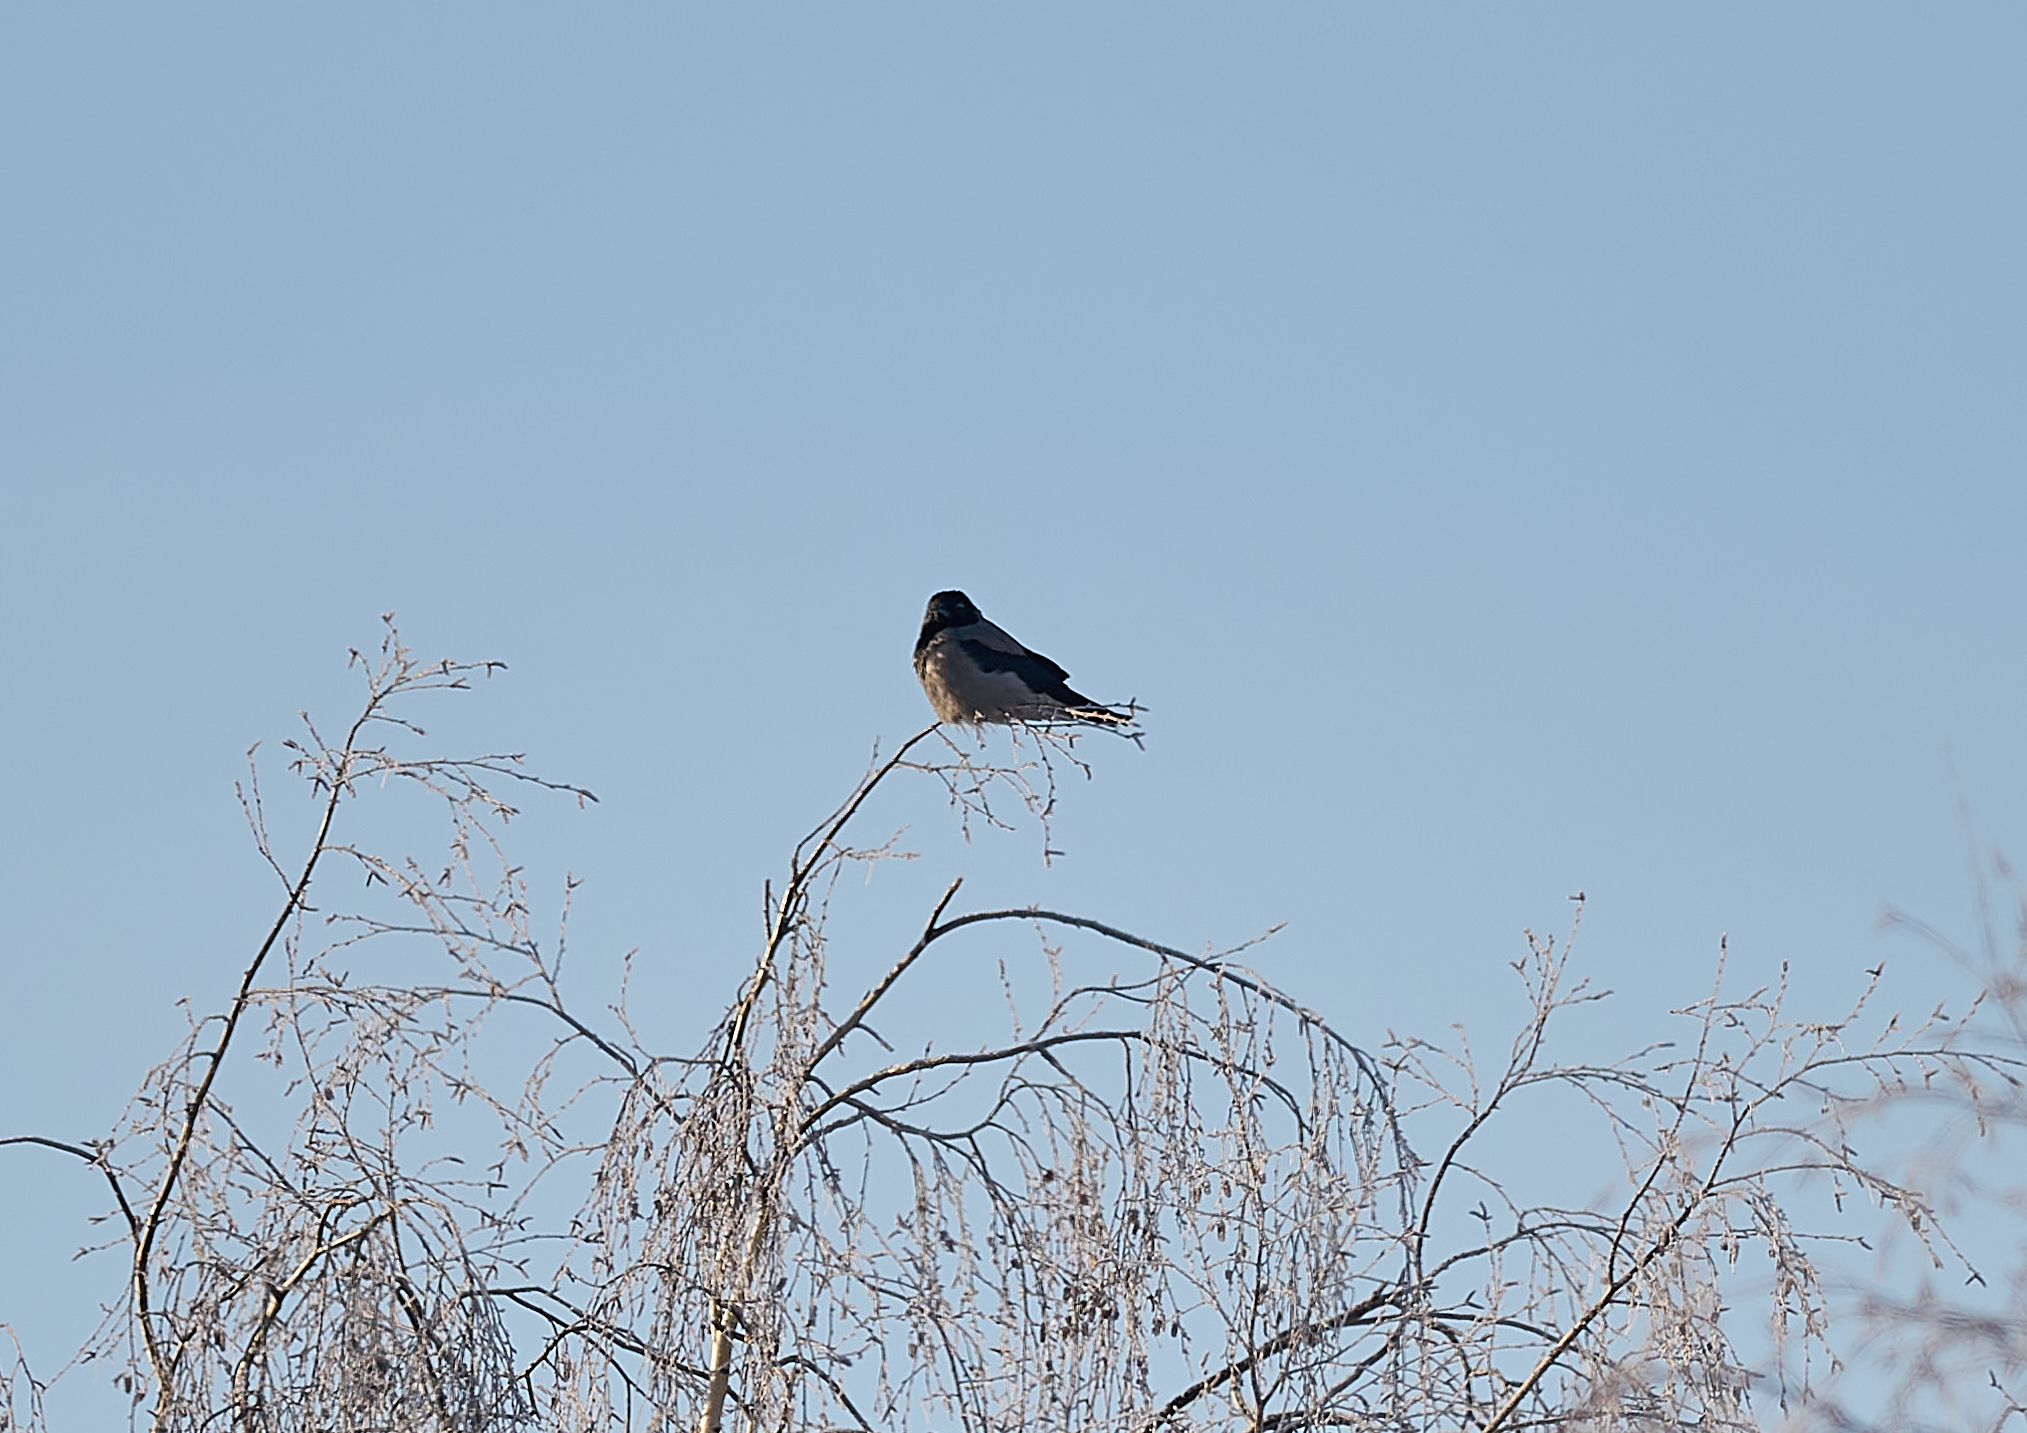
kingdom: Animalia
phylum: Chordata
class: Aves
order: Passeriformes
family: Corvidae
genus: Corvus
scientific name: Corvus cornix
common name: Hooded crow
